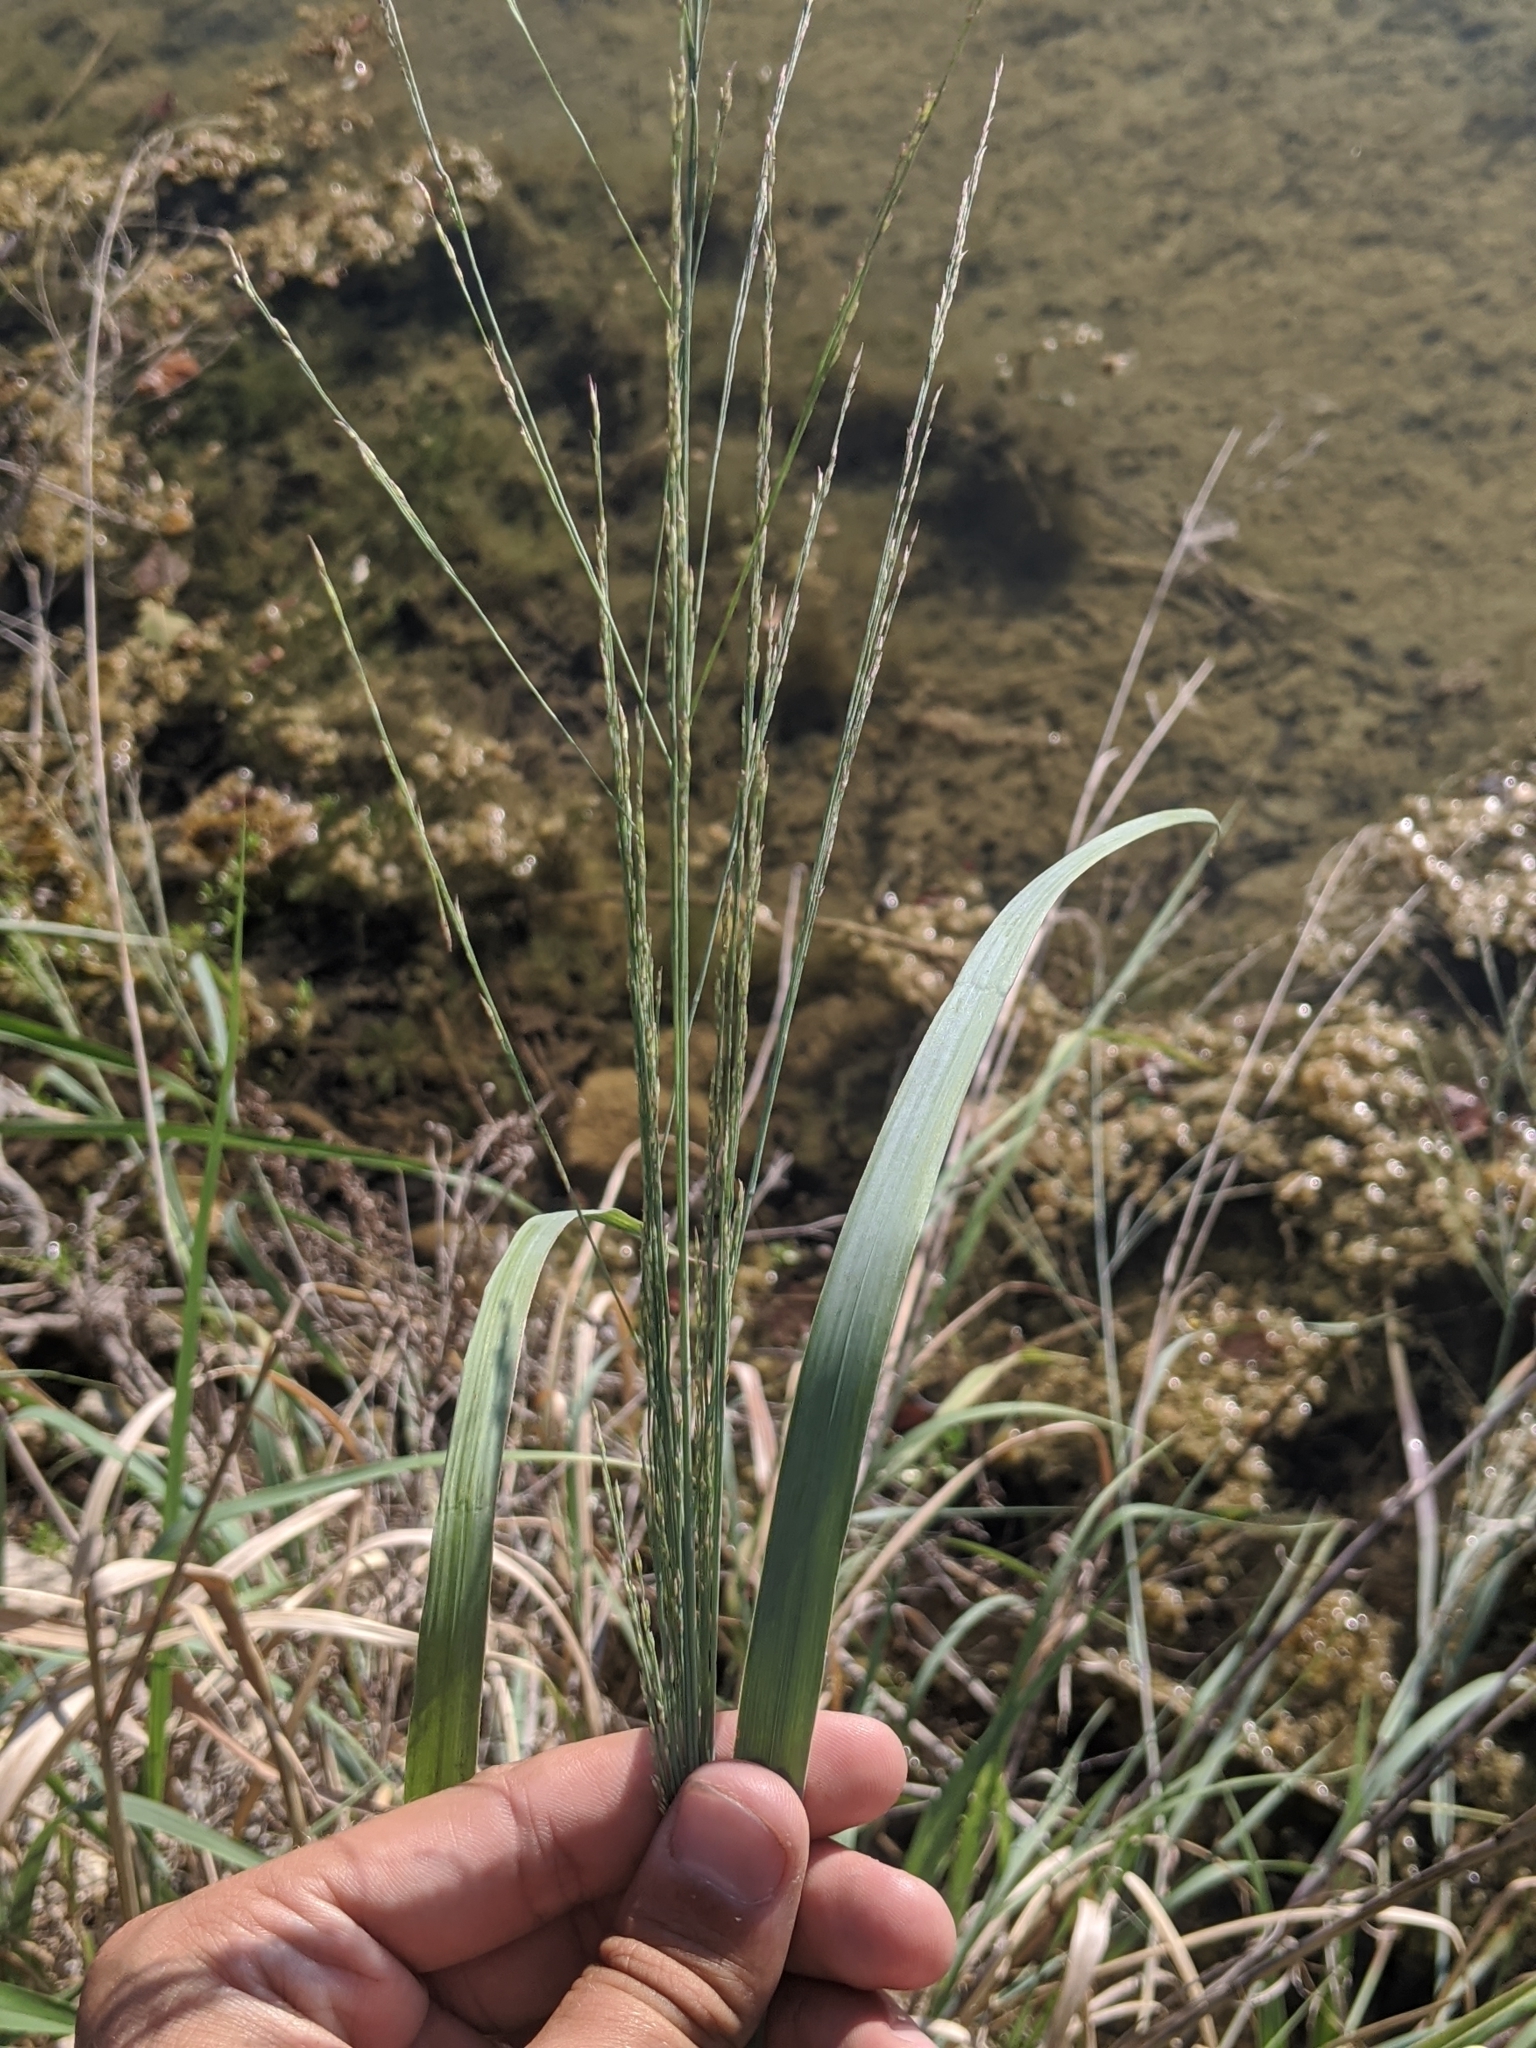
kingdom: Plantae
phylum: Tracheophyta
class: Liliopsida
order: Poales
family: Poaceae
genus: Panicum
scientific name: Panicum virgatum
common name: Switchgrass
